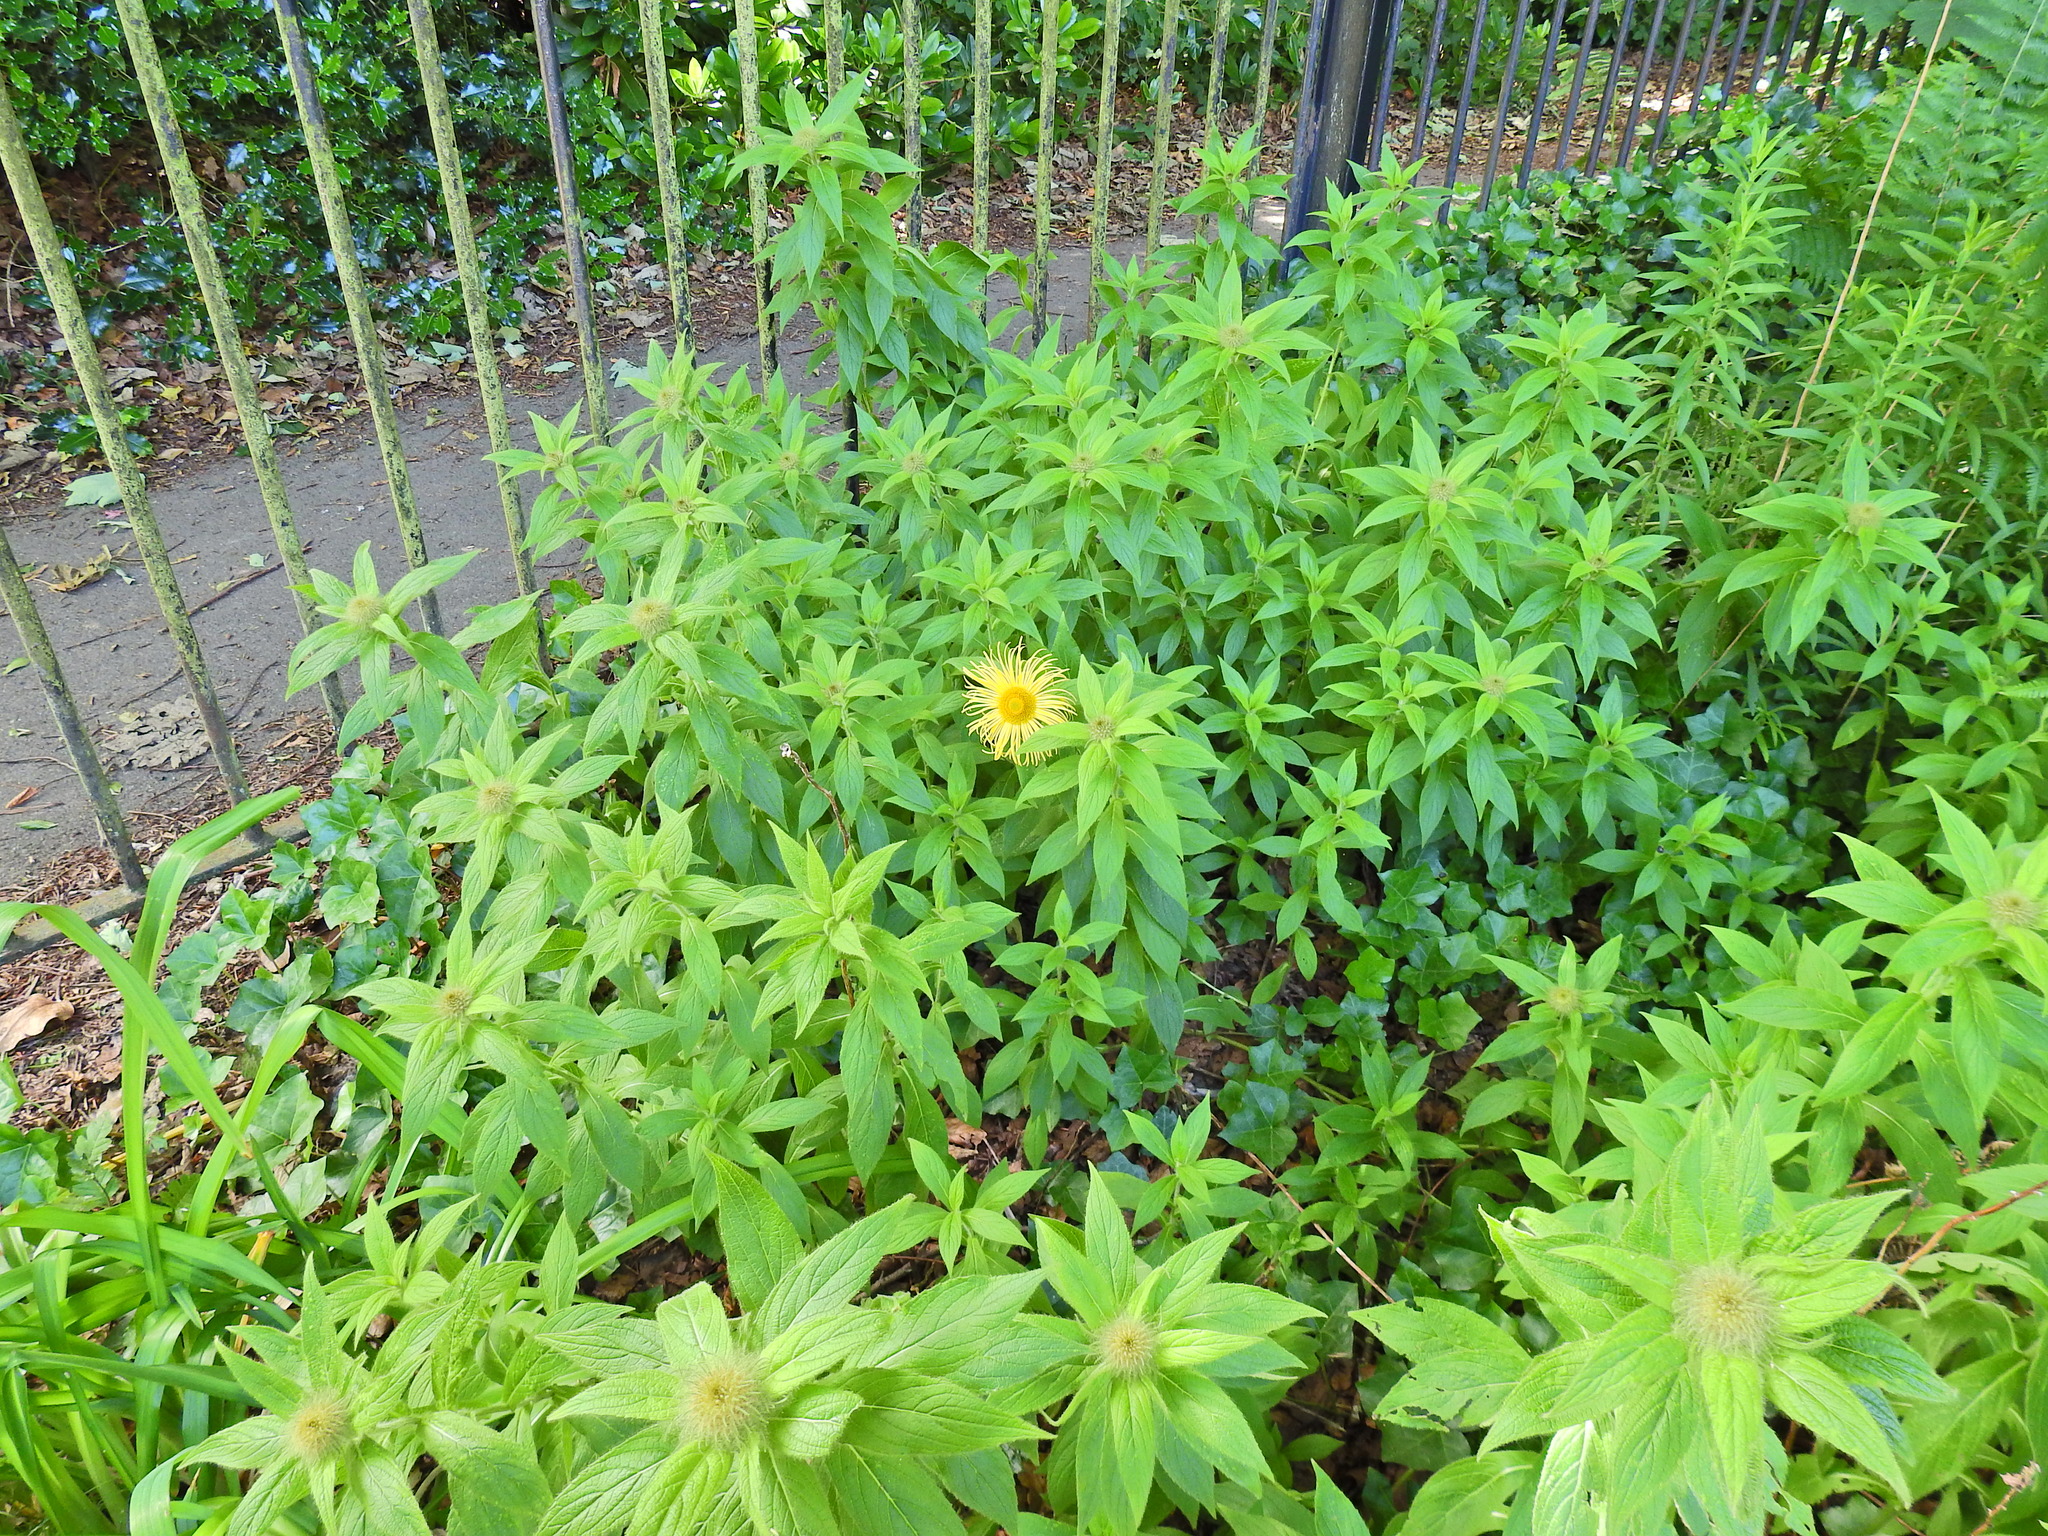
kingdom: Plantae
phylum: Tracheophyta
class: Magnoliopsida
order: Asterales
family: Asteraceae
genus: Inula
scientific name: Inula hookeri
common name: Hooker's-fleabane
